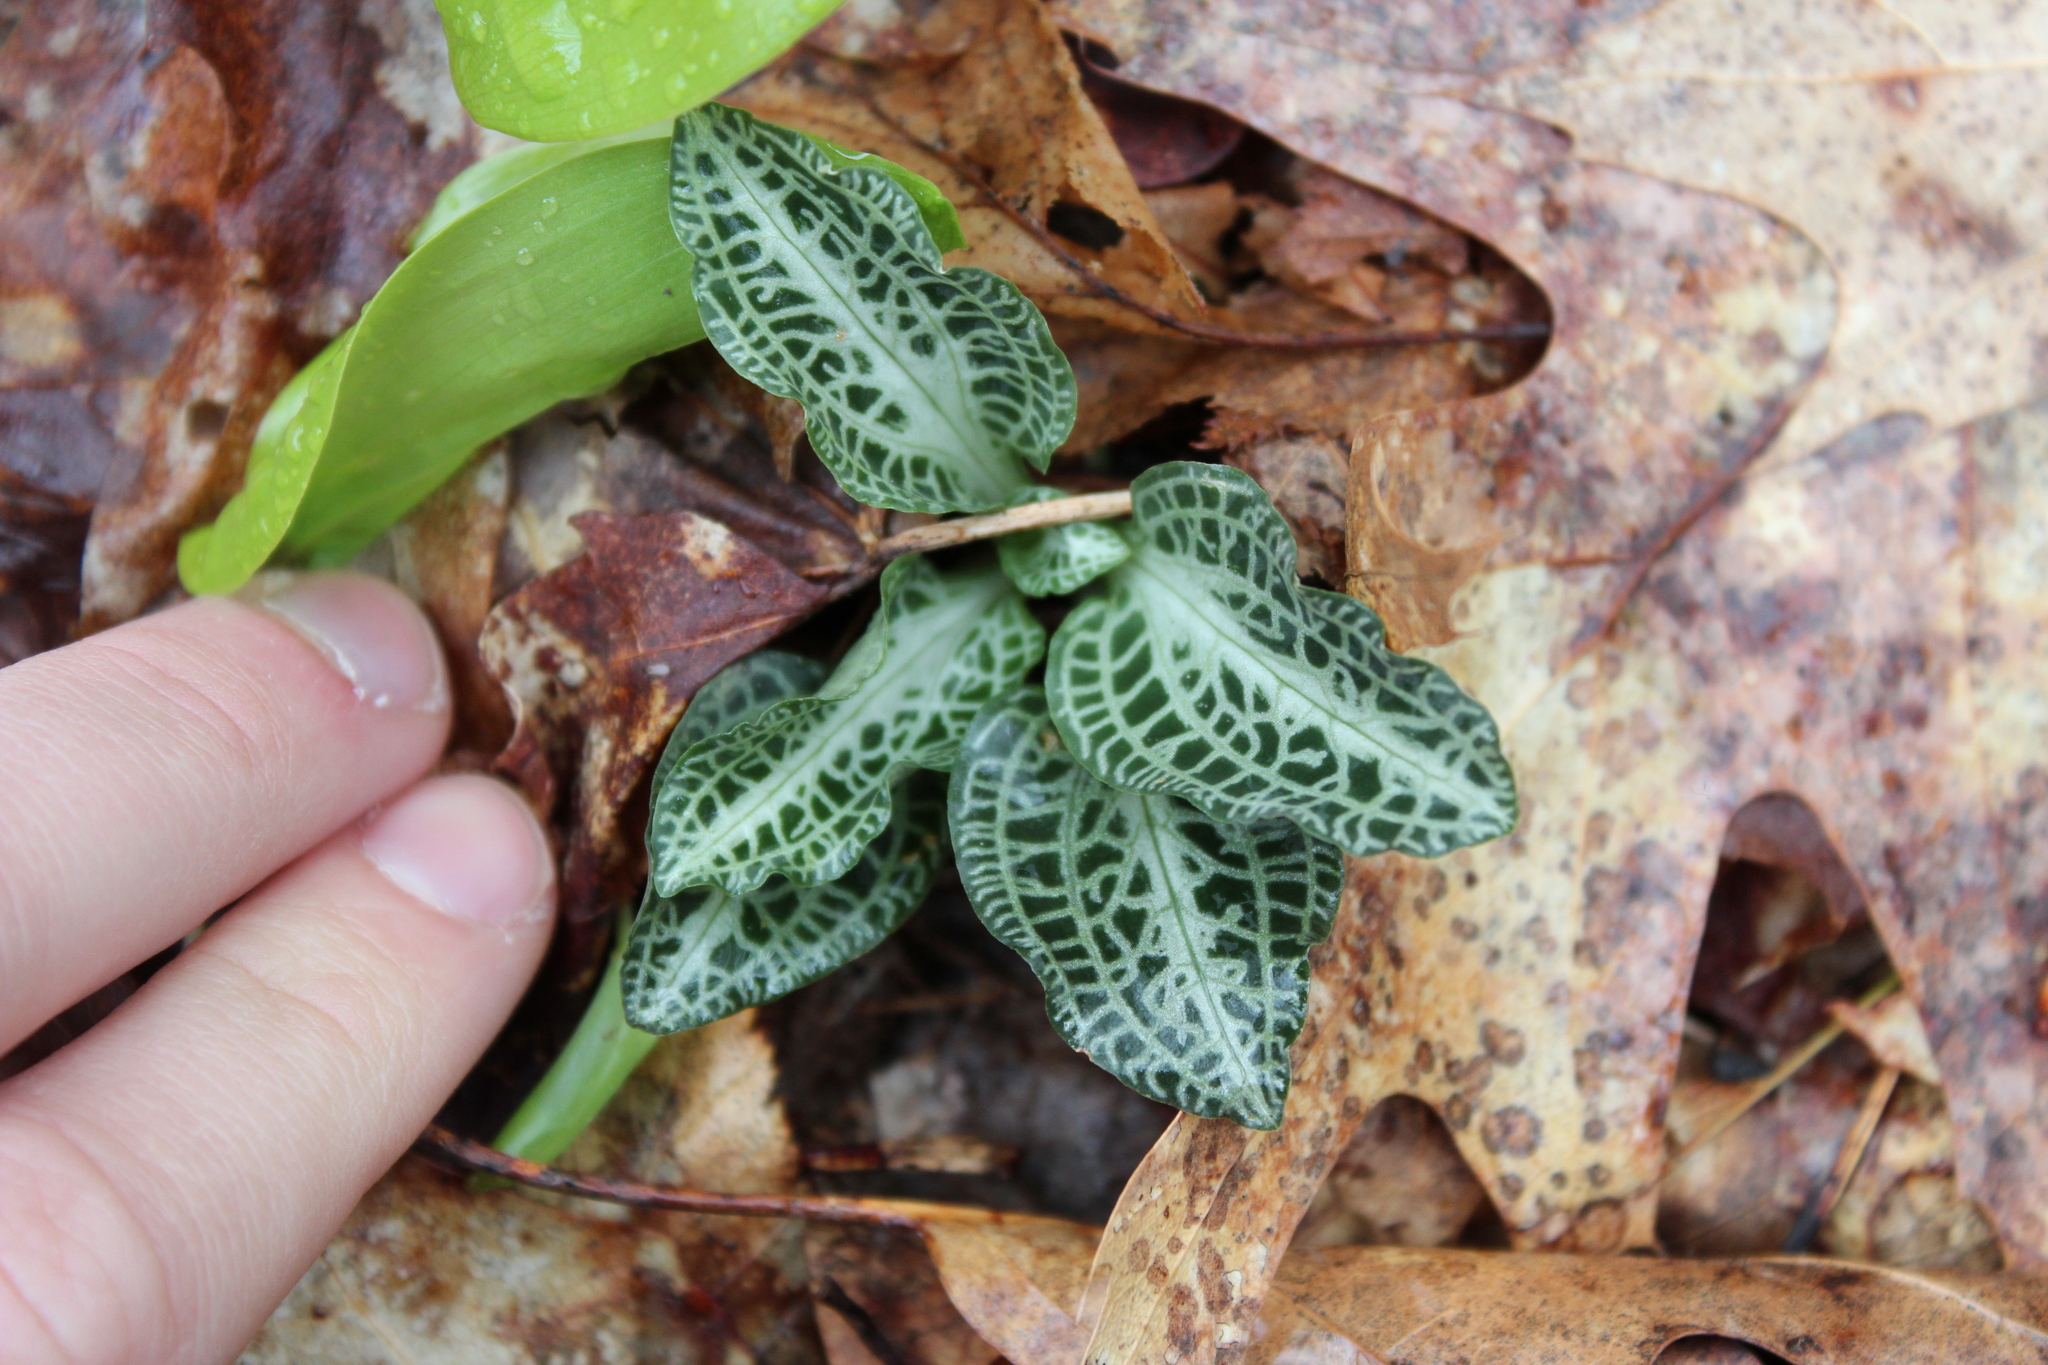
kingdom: Plantae
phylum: Tracheophyta
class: Liliopsida
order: Asparagales
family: Orchidaceae
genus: Goodyera
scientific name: Goodyera pubescens
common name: Downy rattlesnake-plantain
